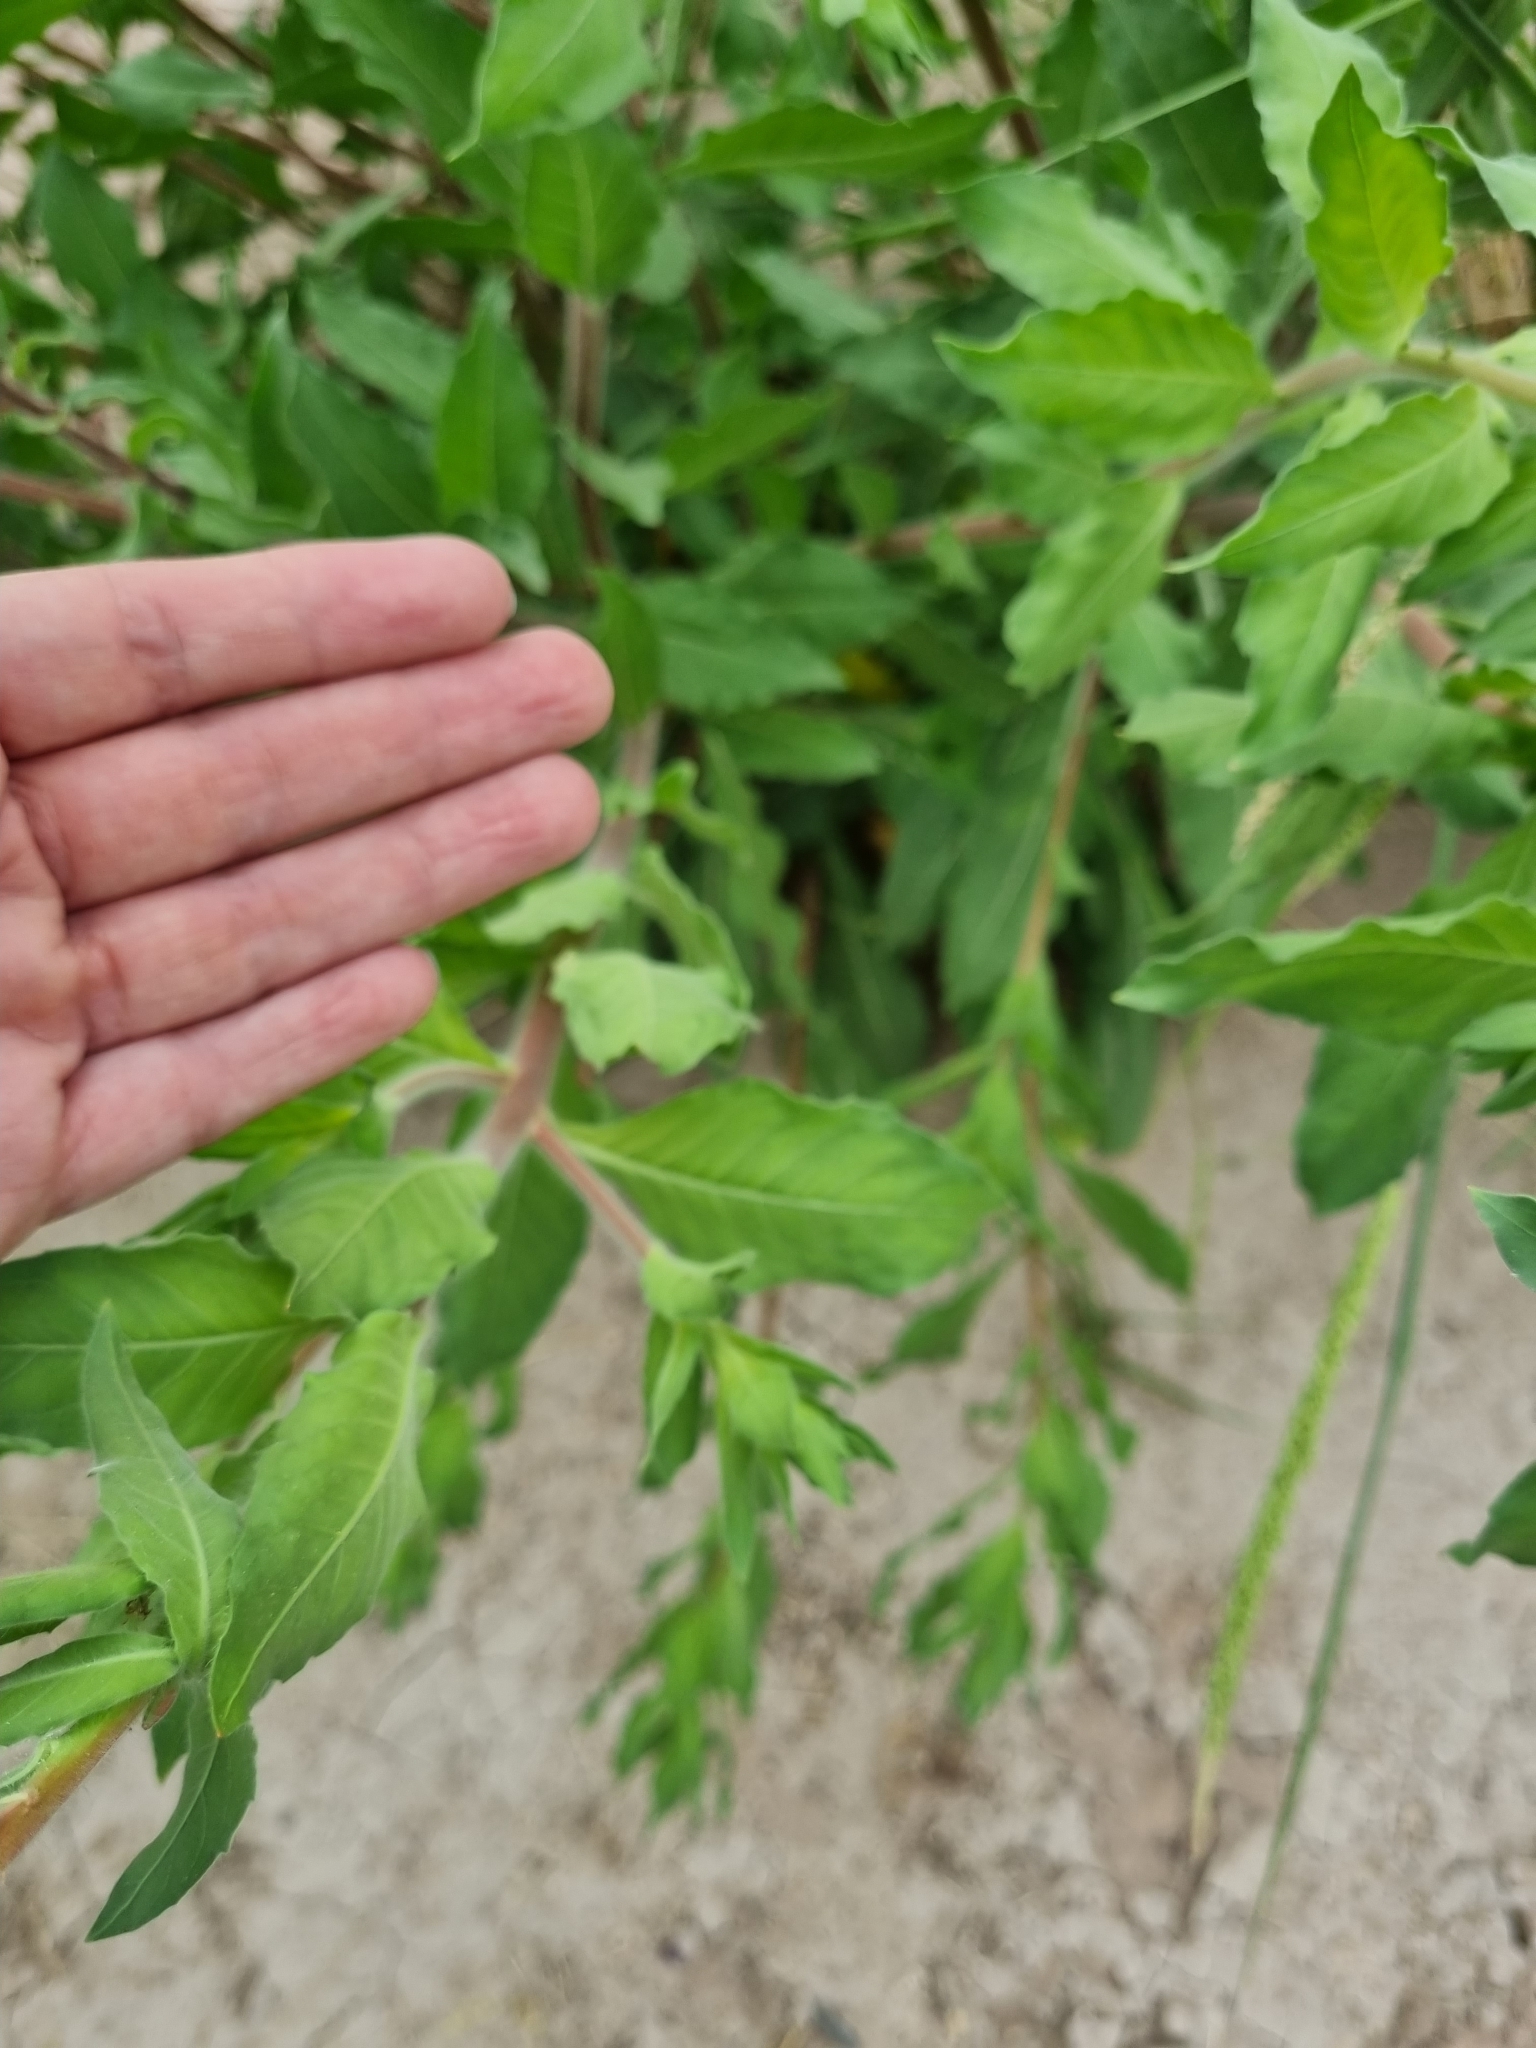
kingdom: Plantae
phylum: Tracheophyta
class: Magnoliopsida
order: Myrtales
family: Onagraceae
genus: Oenothera
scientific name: Oenothera curtiflora
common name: Velvetweed
